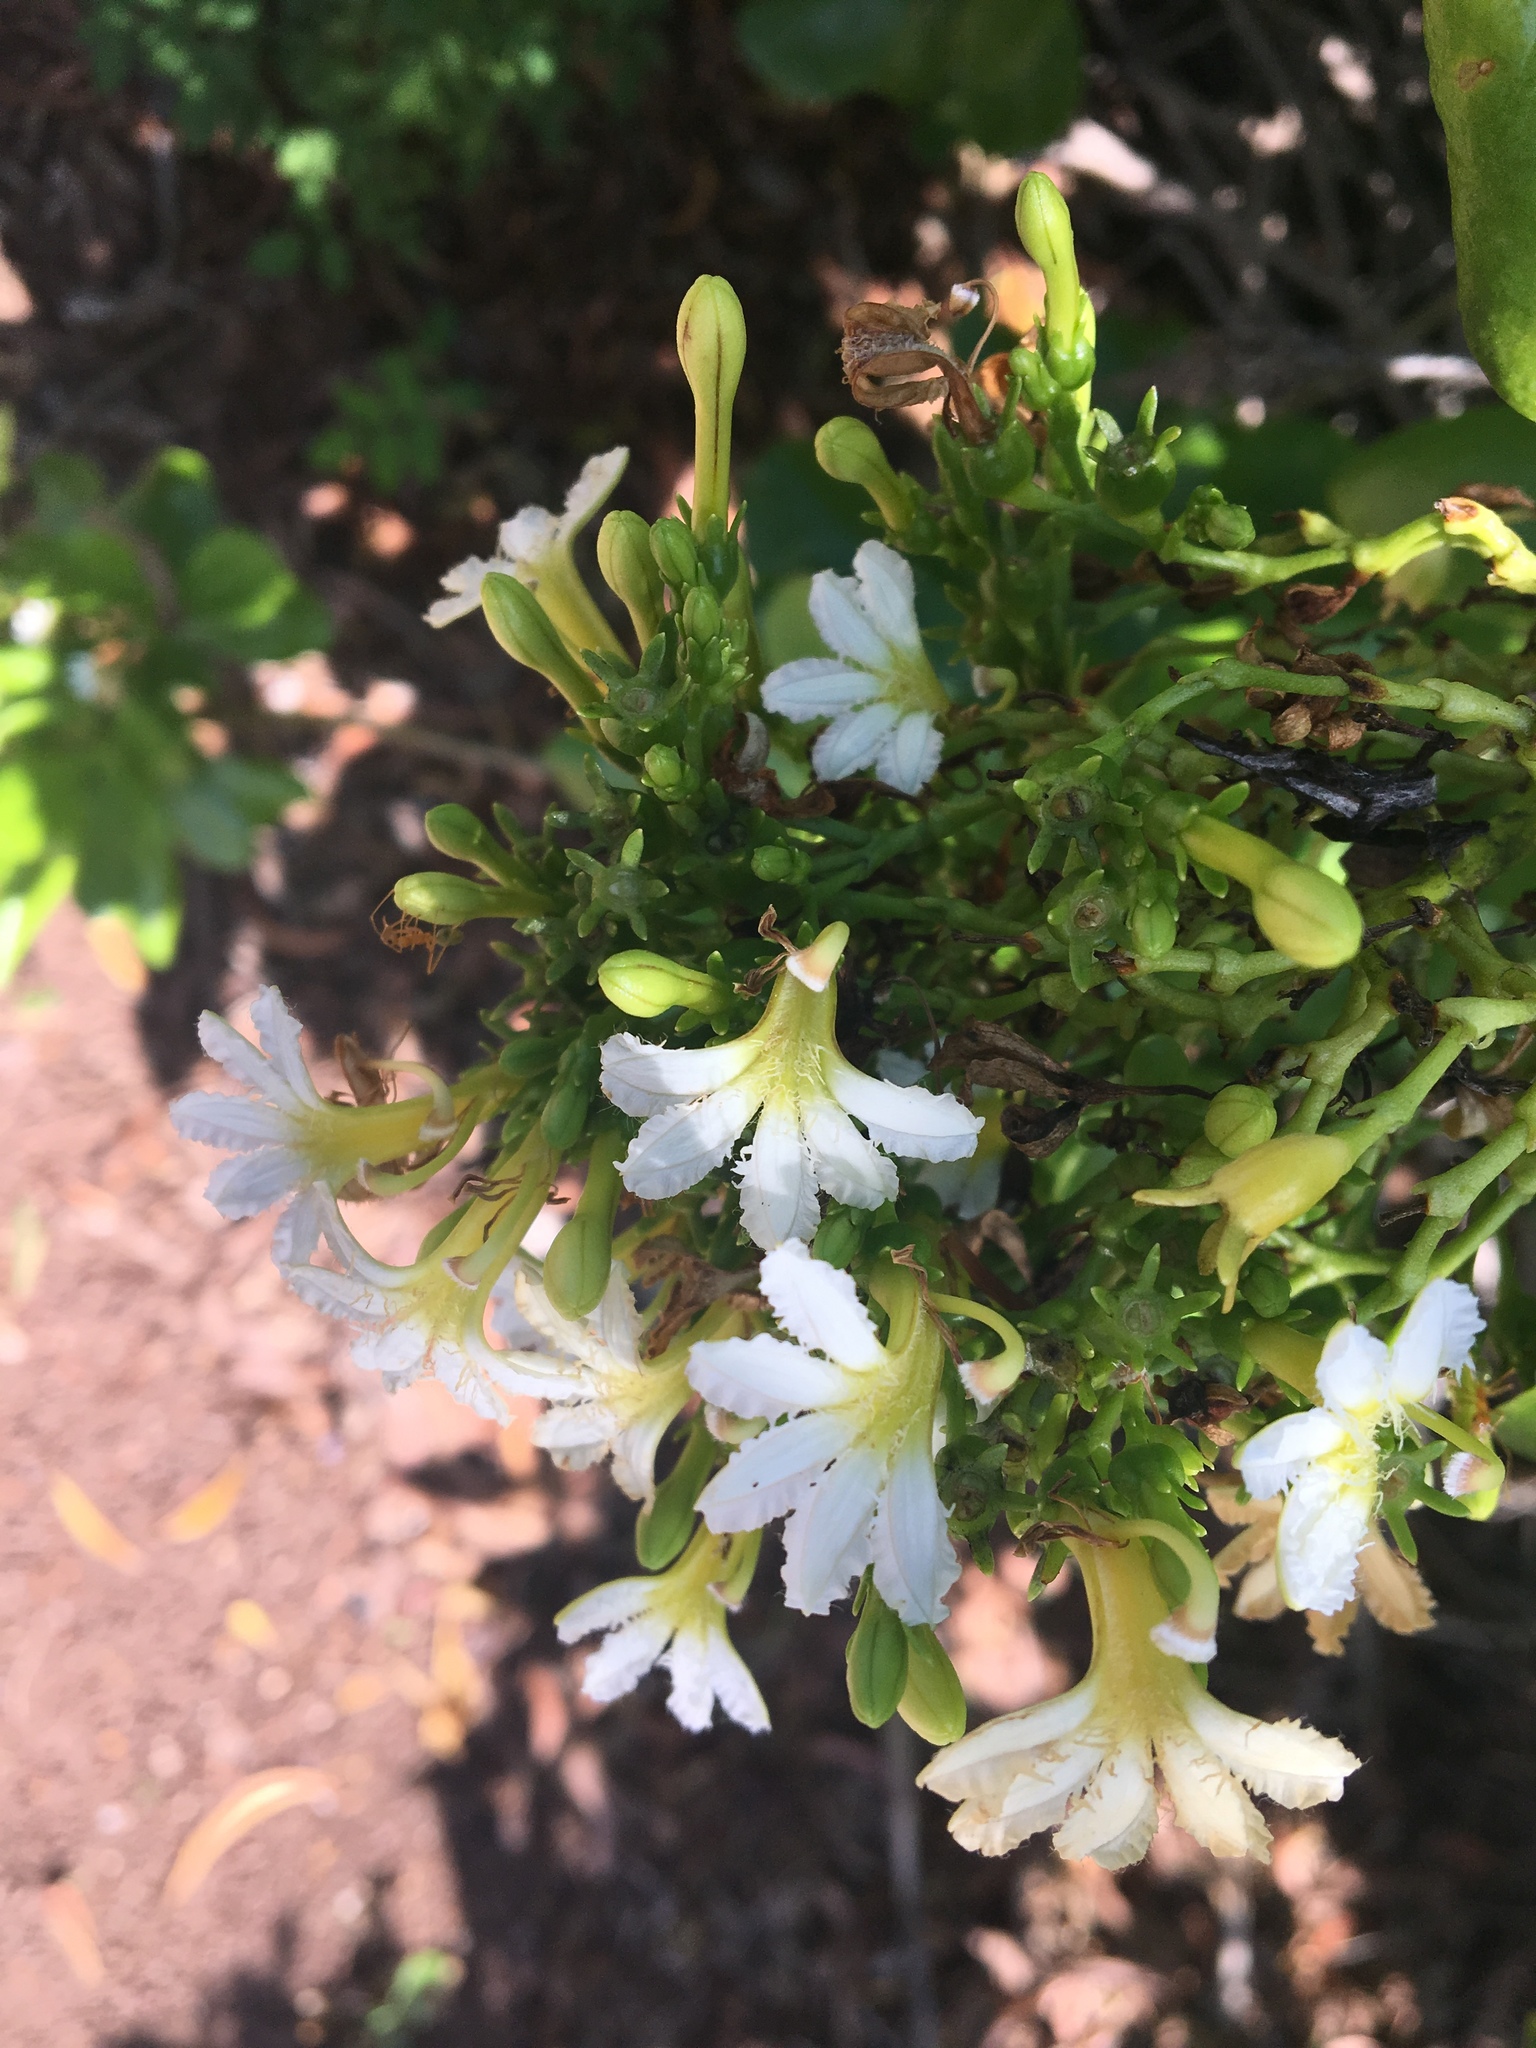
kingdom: Plantae
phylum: Tracheophyta
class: Magnoliopsida
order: Asterales
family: Goodeniaceae
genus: Scaevola
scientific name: Scaevola taccada
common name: Sea lettucetree
